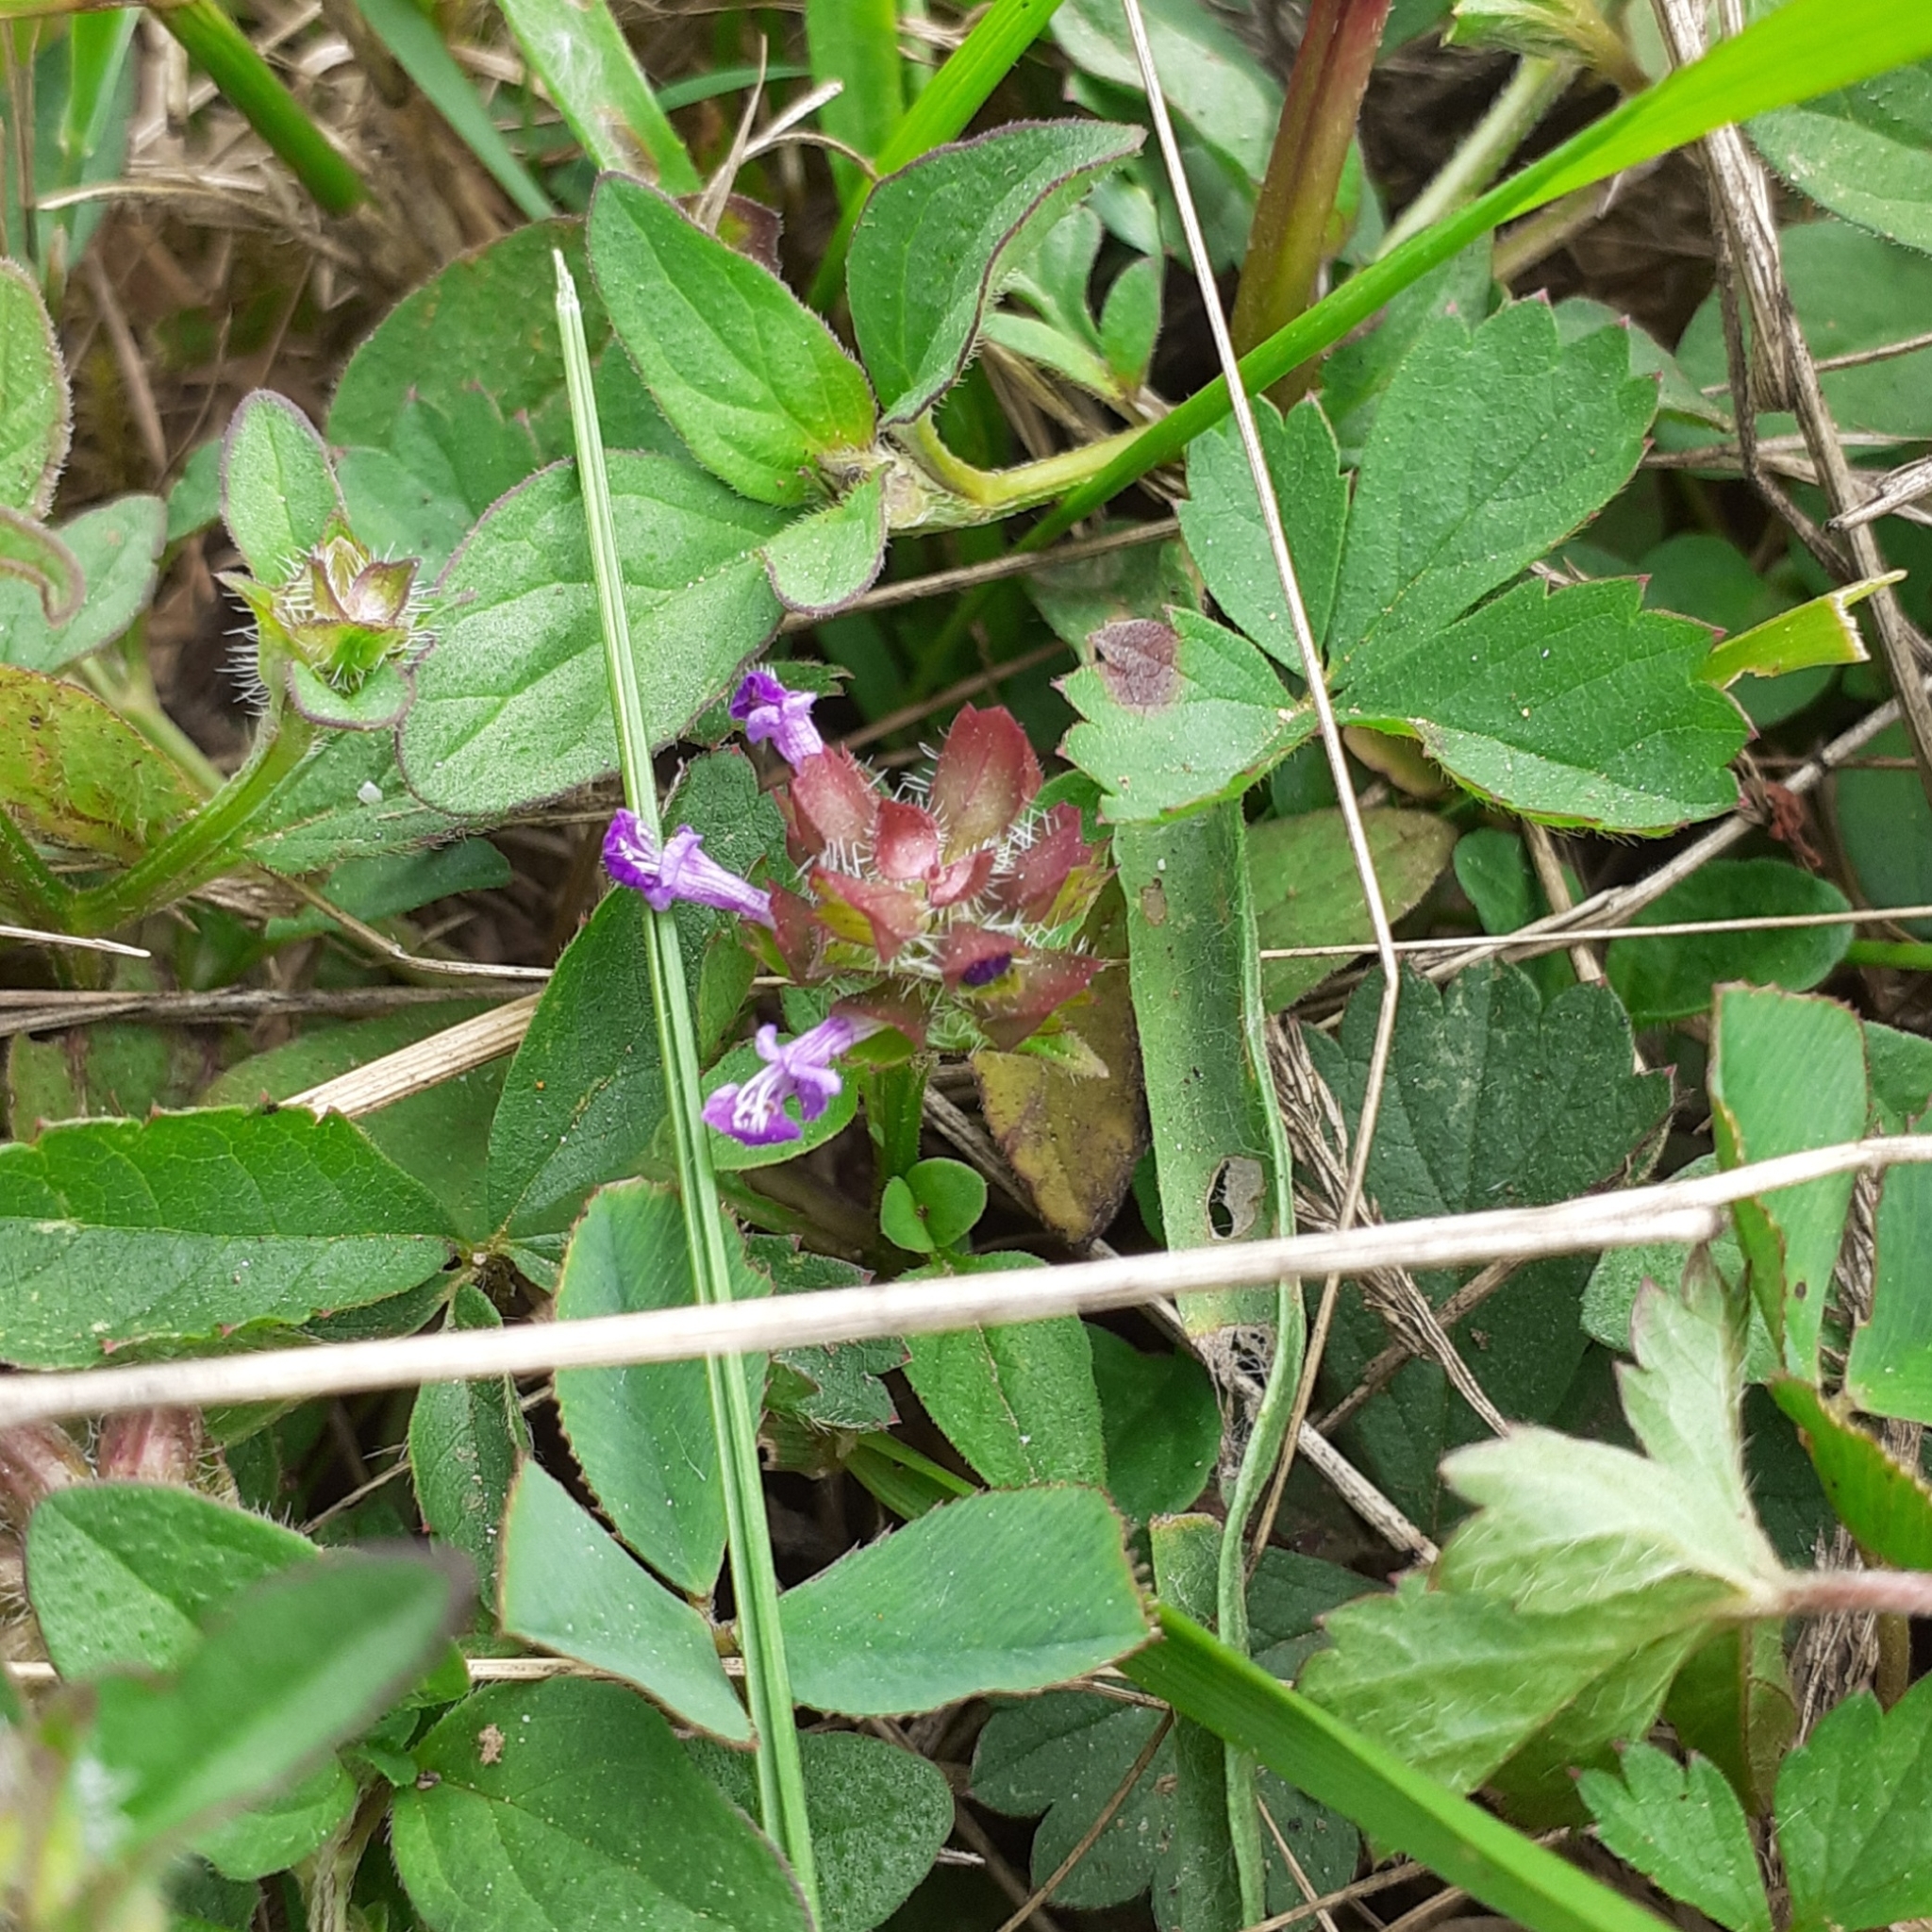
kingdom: Plantae
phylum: Tracheophyta
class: Magnoliopsida
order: Lamiales
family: Lamiaceae
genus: Prunella
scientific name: Prunella vulgaris
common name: Heal-all
